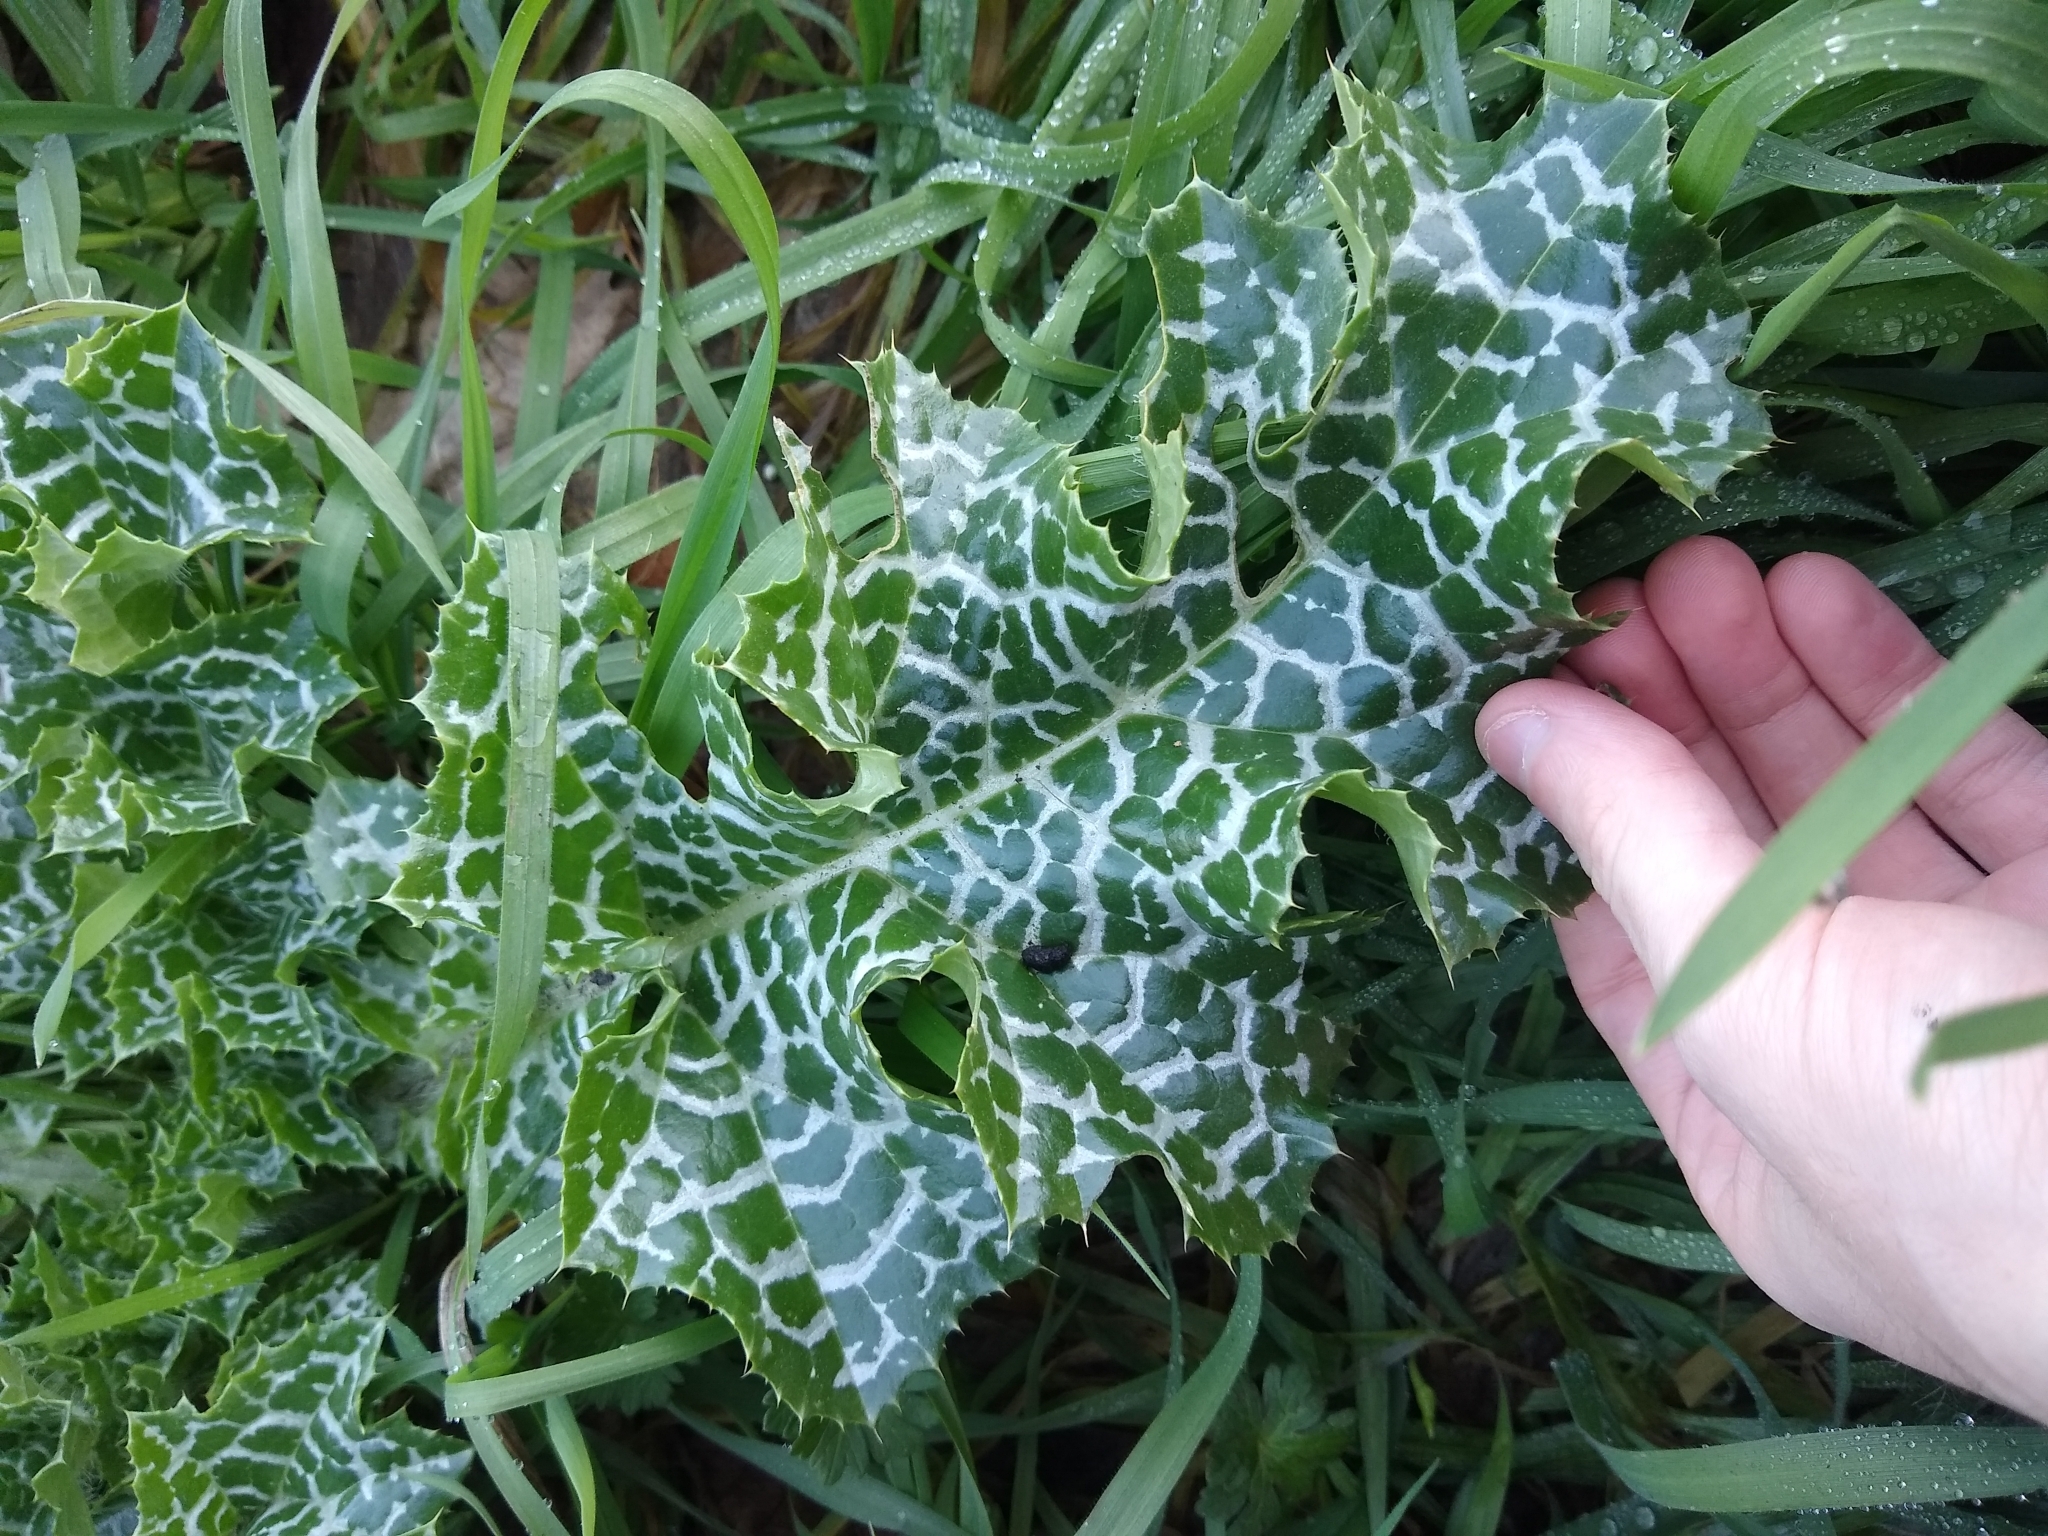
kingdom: Plantae
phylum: Tracheophyta
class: Magnoliopsida
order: Asterales
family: Asteraceae
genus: Silybum
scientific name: Silybum marianum
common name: Milk thistle
